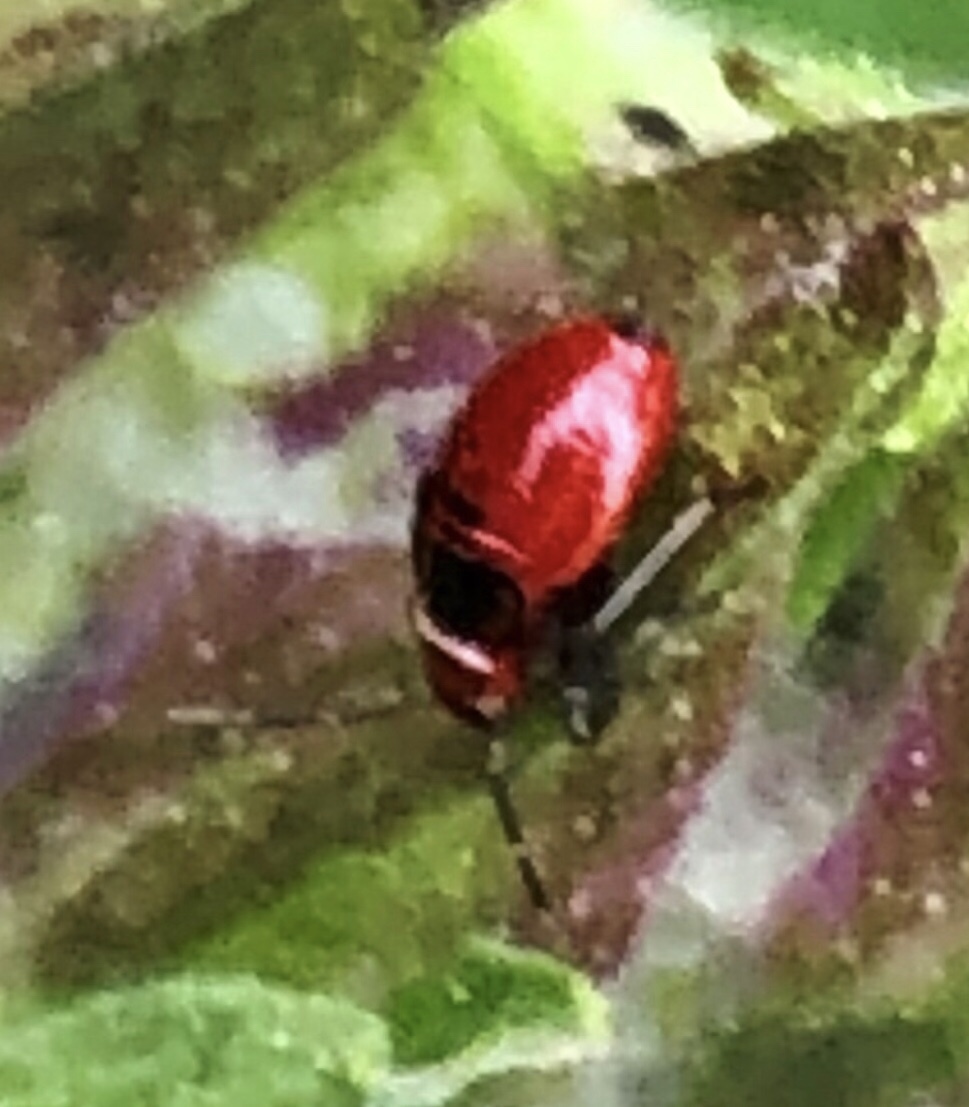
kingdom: Animalia
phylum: Arthropoda
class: Insecta
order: Hemiptera
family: Miridae
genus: Poecilocapsus
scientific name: Poecilocapsus lineatus
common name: Four-lined plant bug
